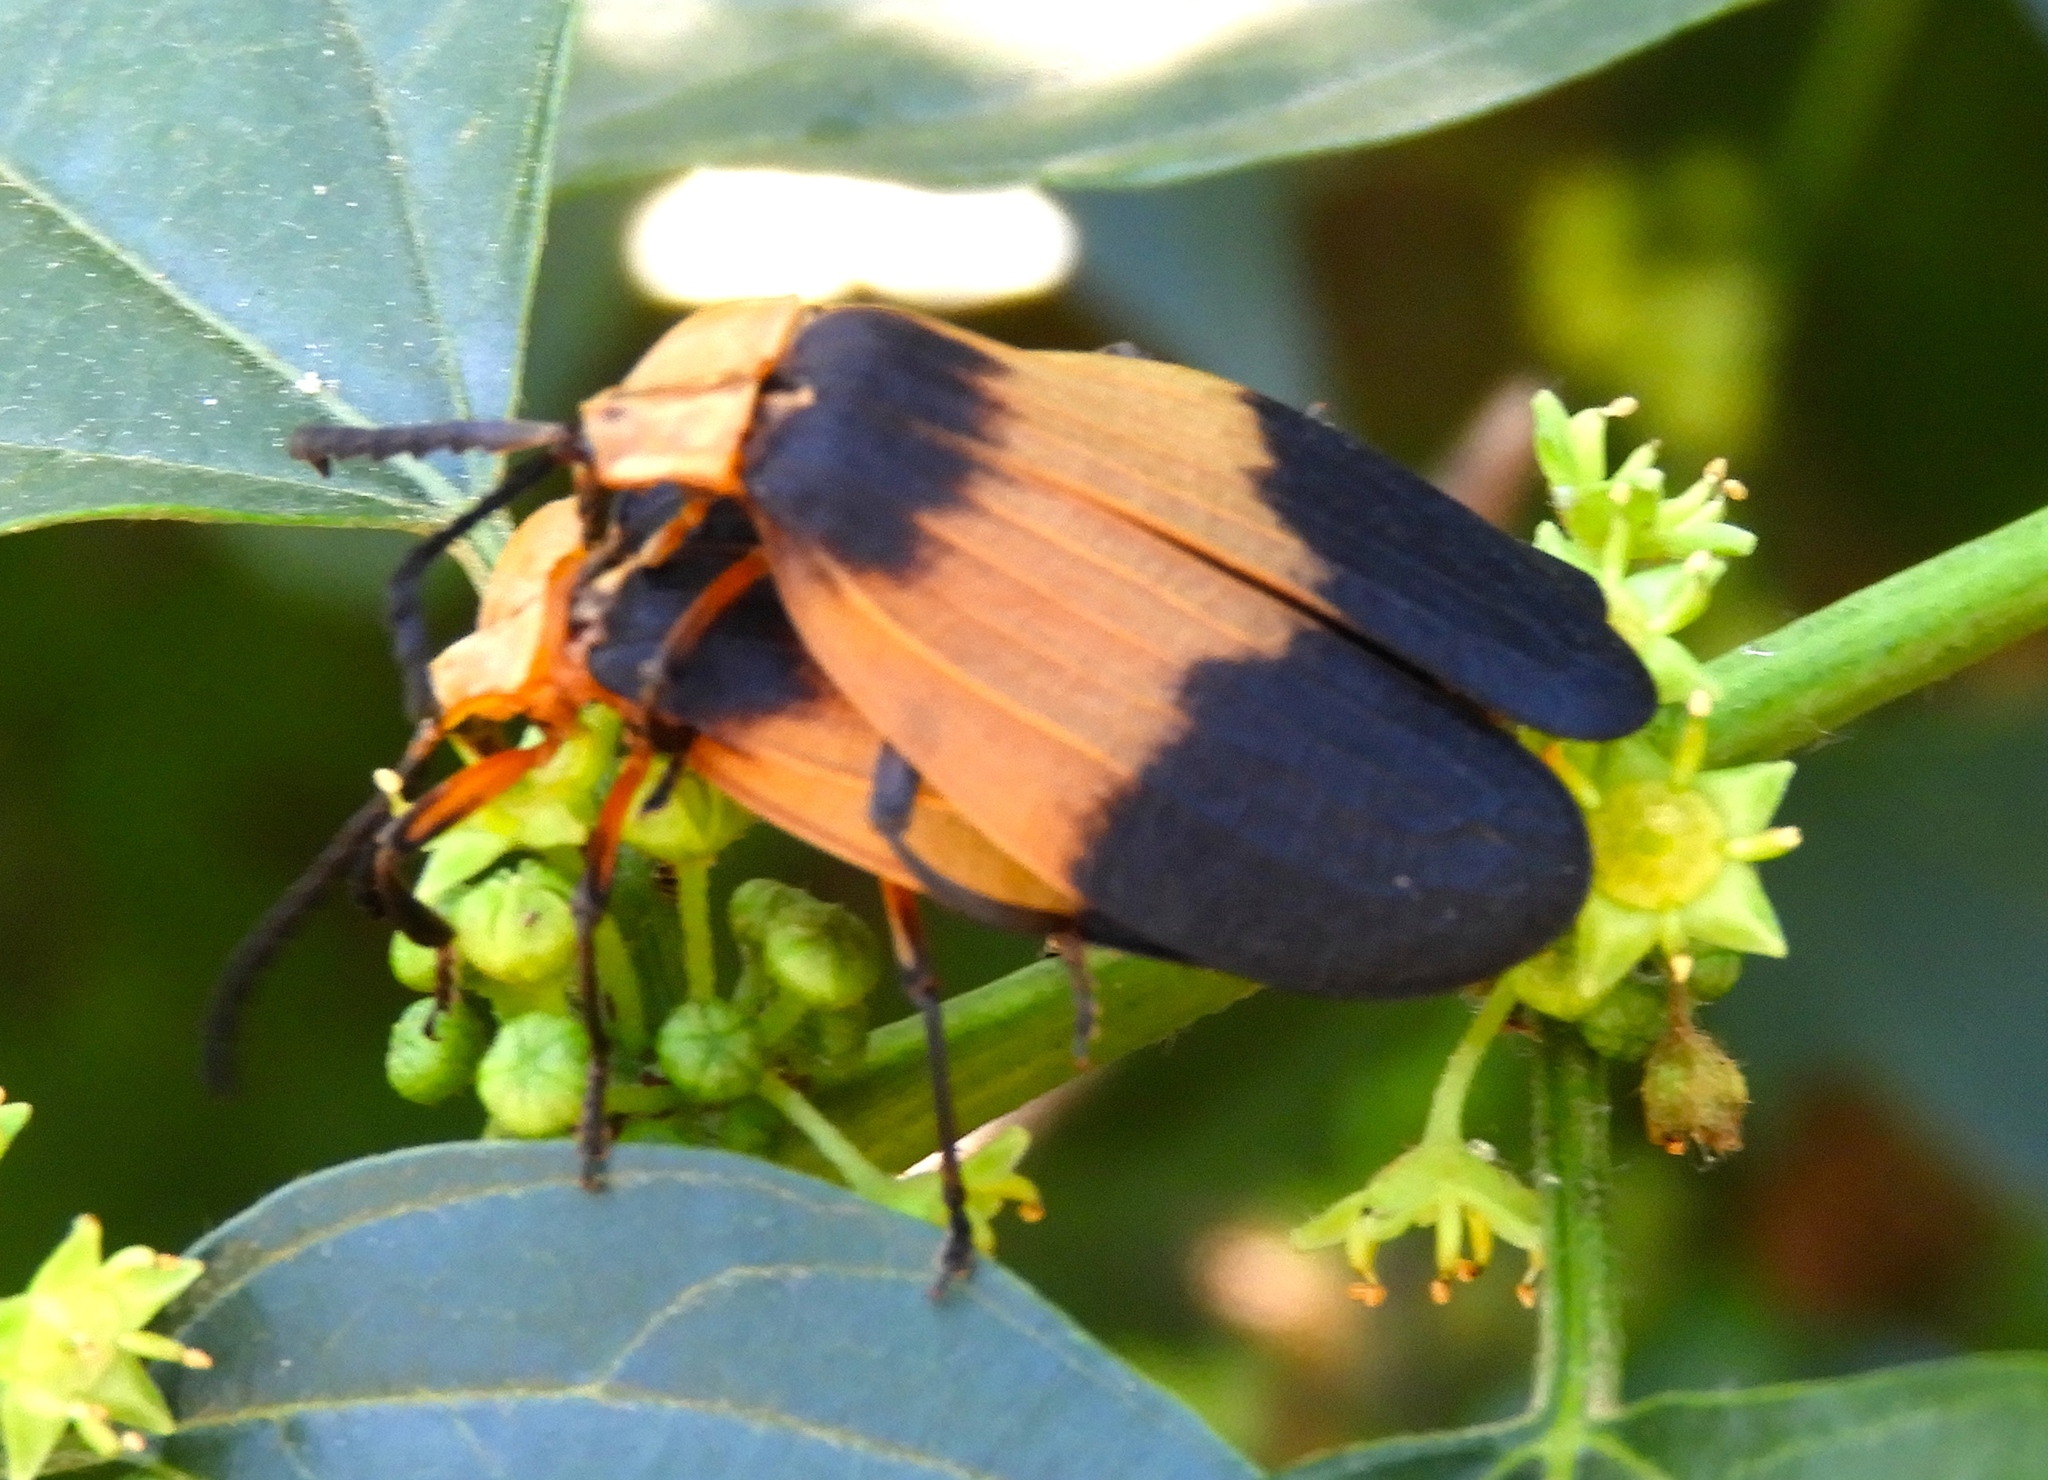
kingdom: Animalia
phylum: Arthropoda
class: Insecta
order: Coleoptera
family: Lycidae
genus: Lycus
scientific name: Lycus
